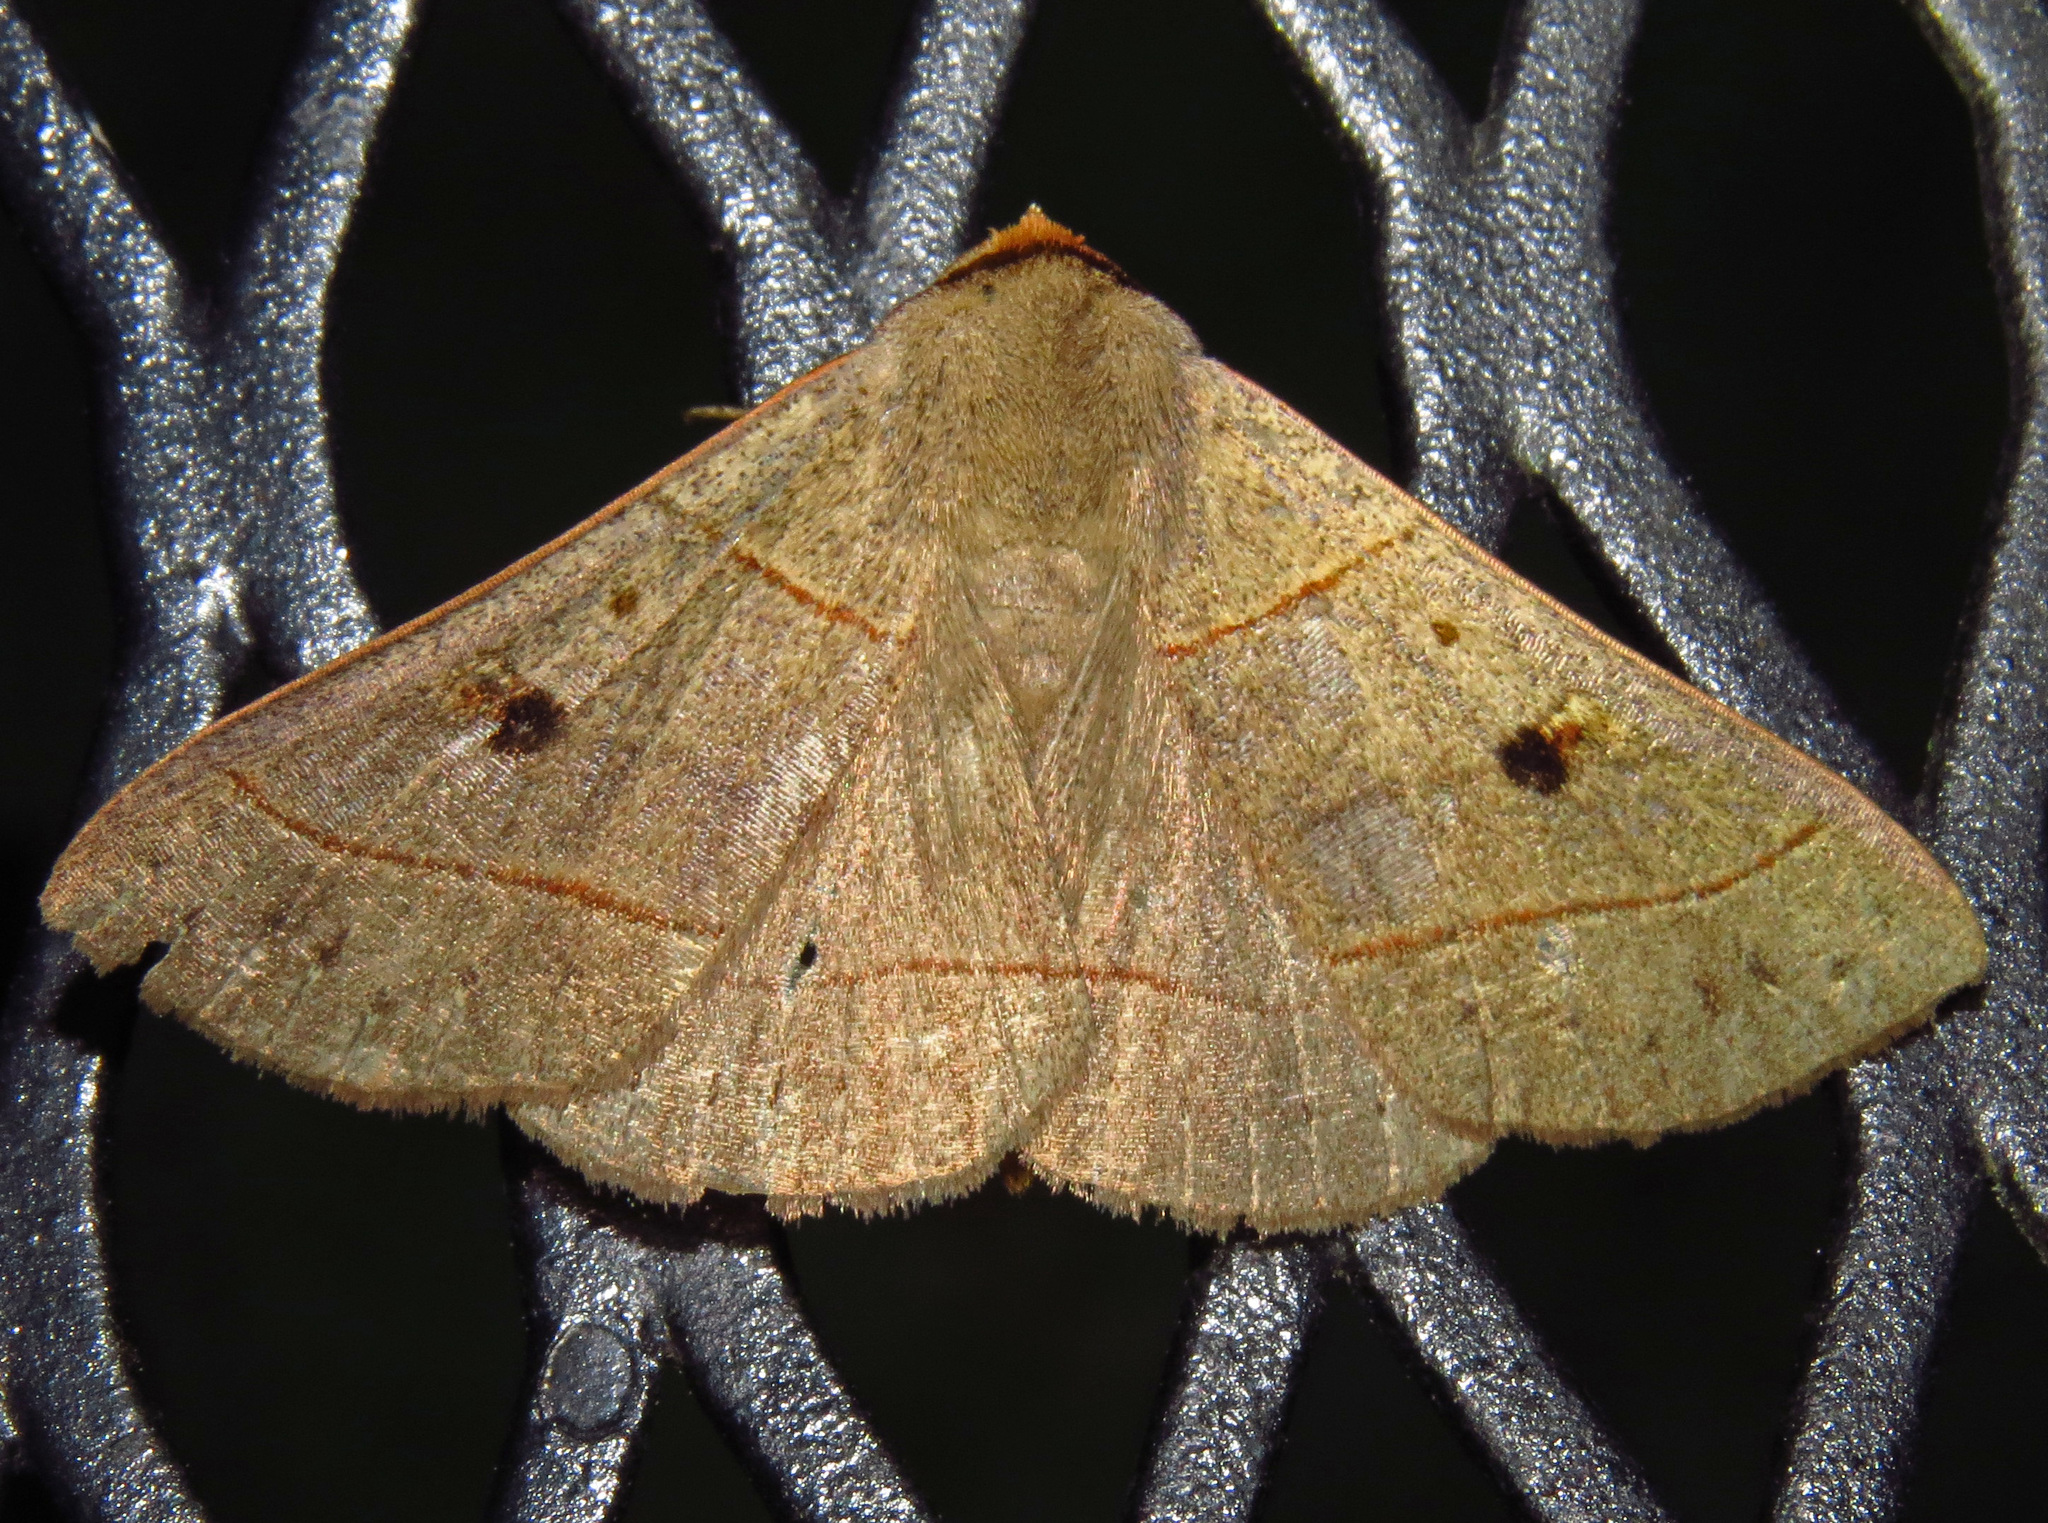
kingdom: Animalia
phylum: Arthropoda
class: Insecta
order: Lepidoptera
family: Erebidae
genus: Panopoda
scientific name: Panopoda rufimargo
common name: Red-lined panopoda moth
